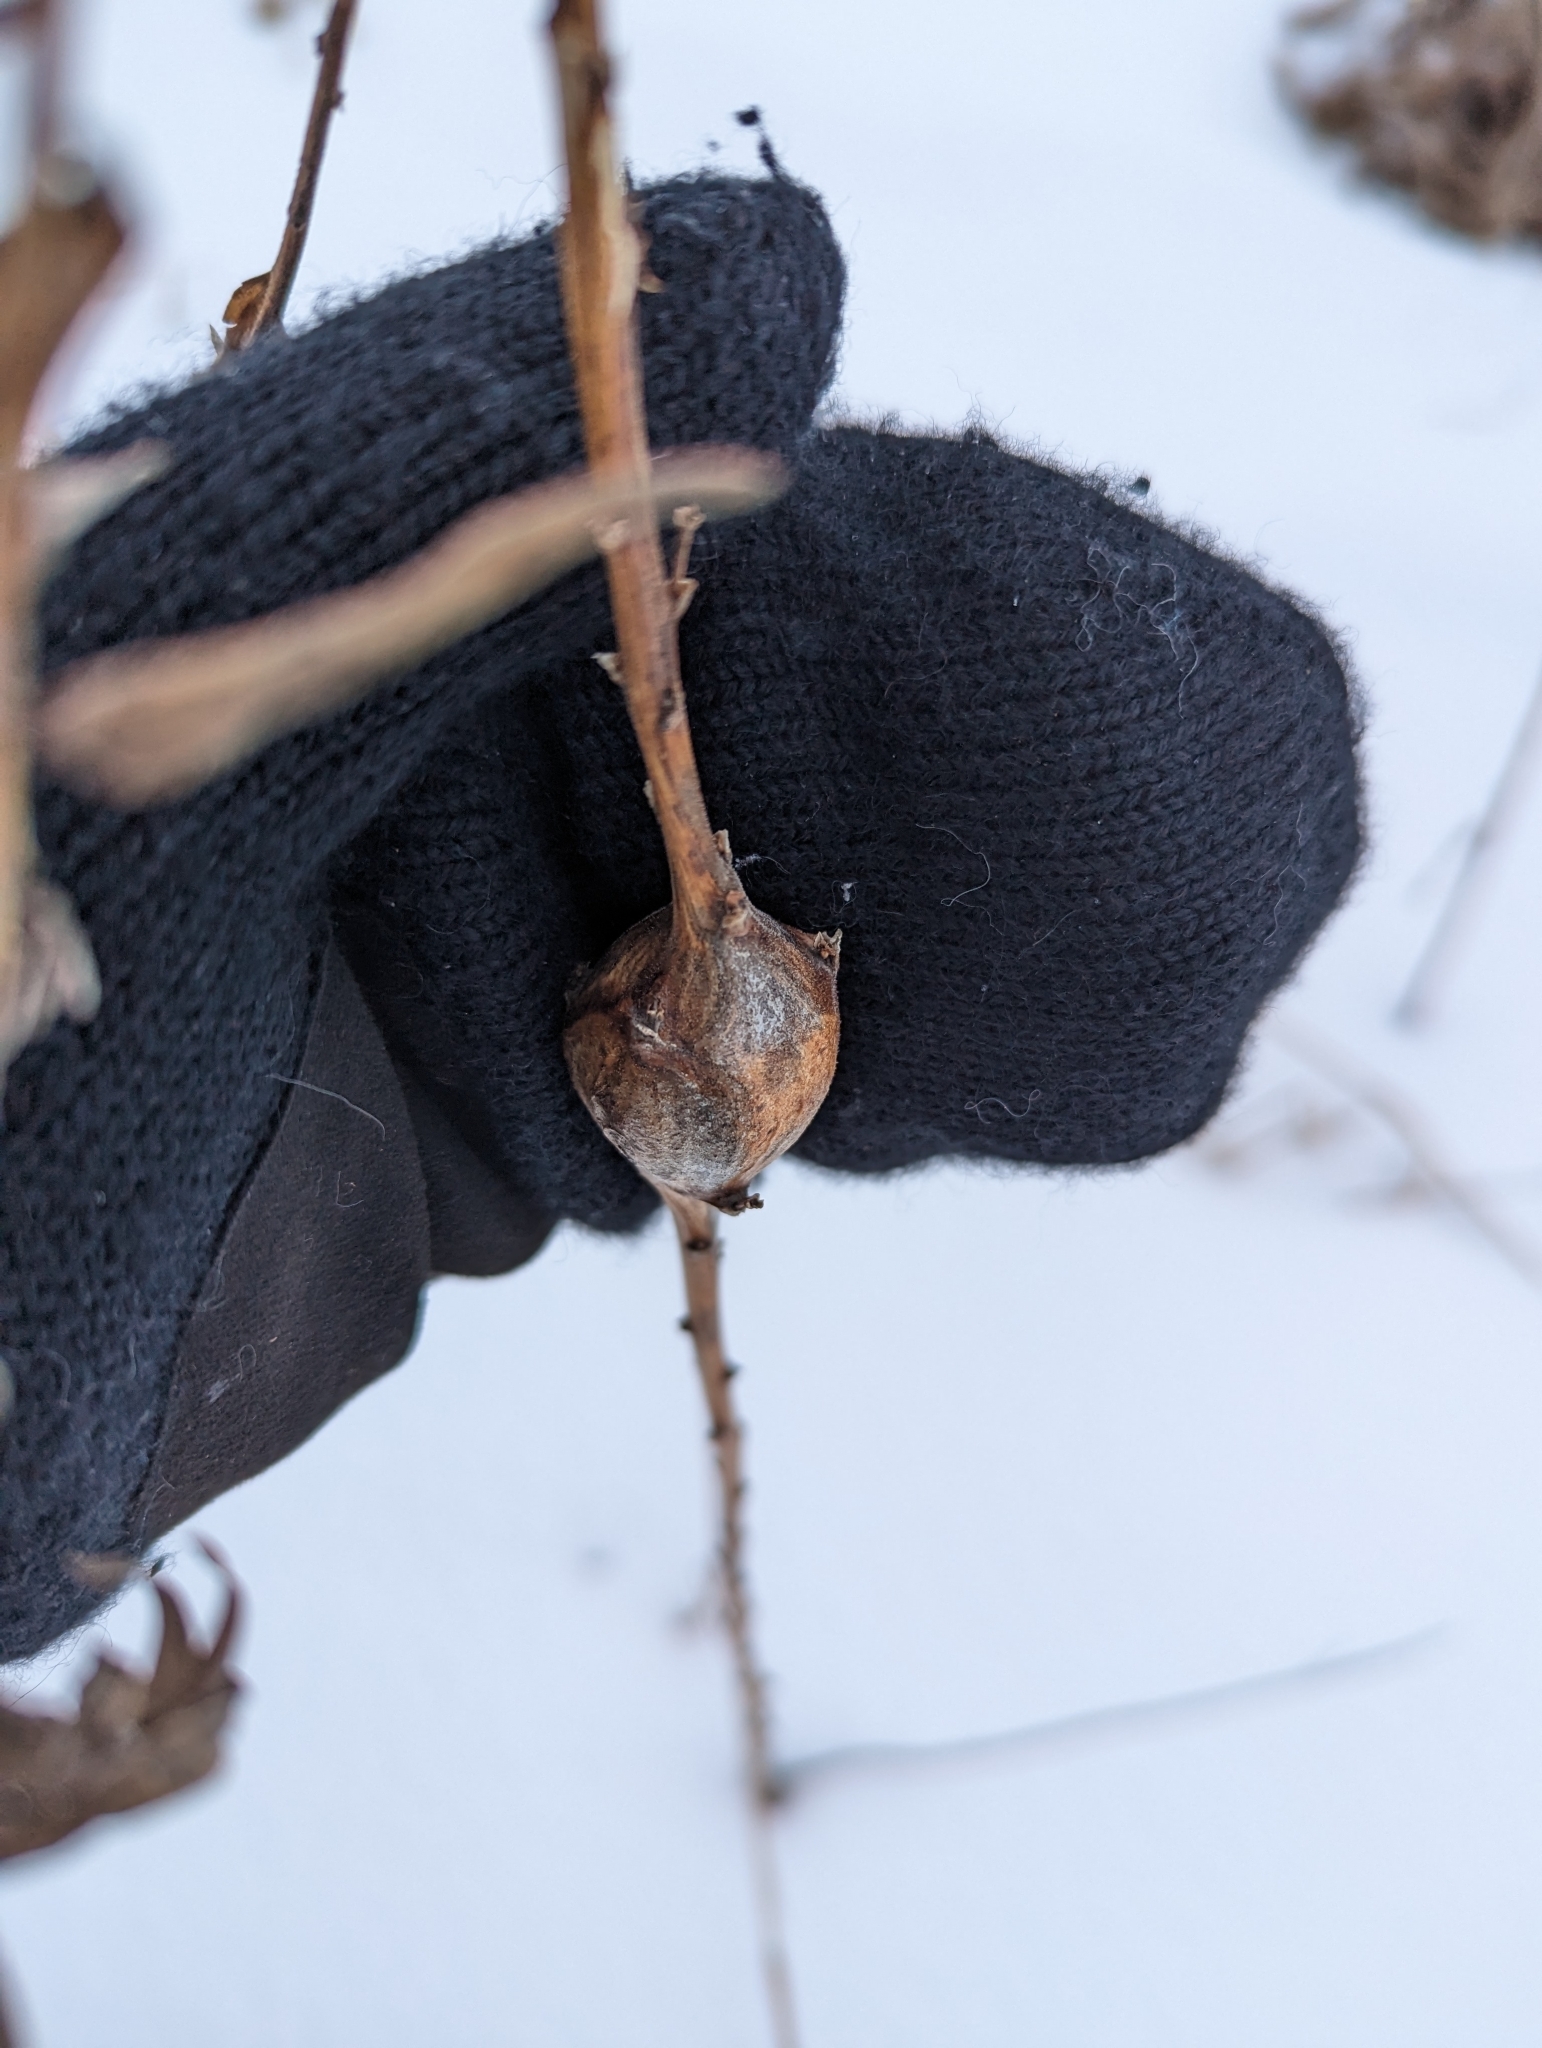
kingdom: Animalia
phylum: Arthropoda
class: Insecta
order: Diptera
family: Tephritidae
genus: Eurosta
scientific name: Eurosta solidaginis
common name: Goldenrod gall fly
